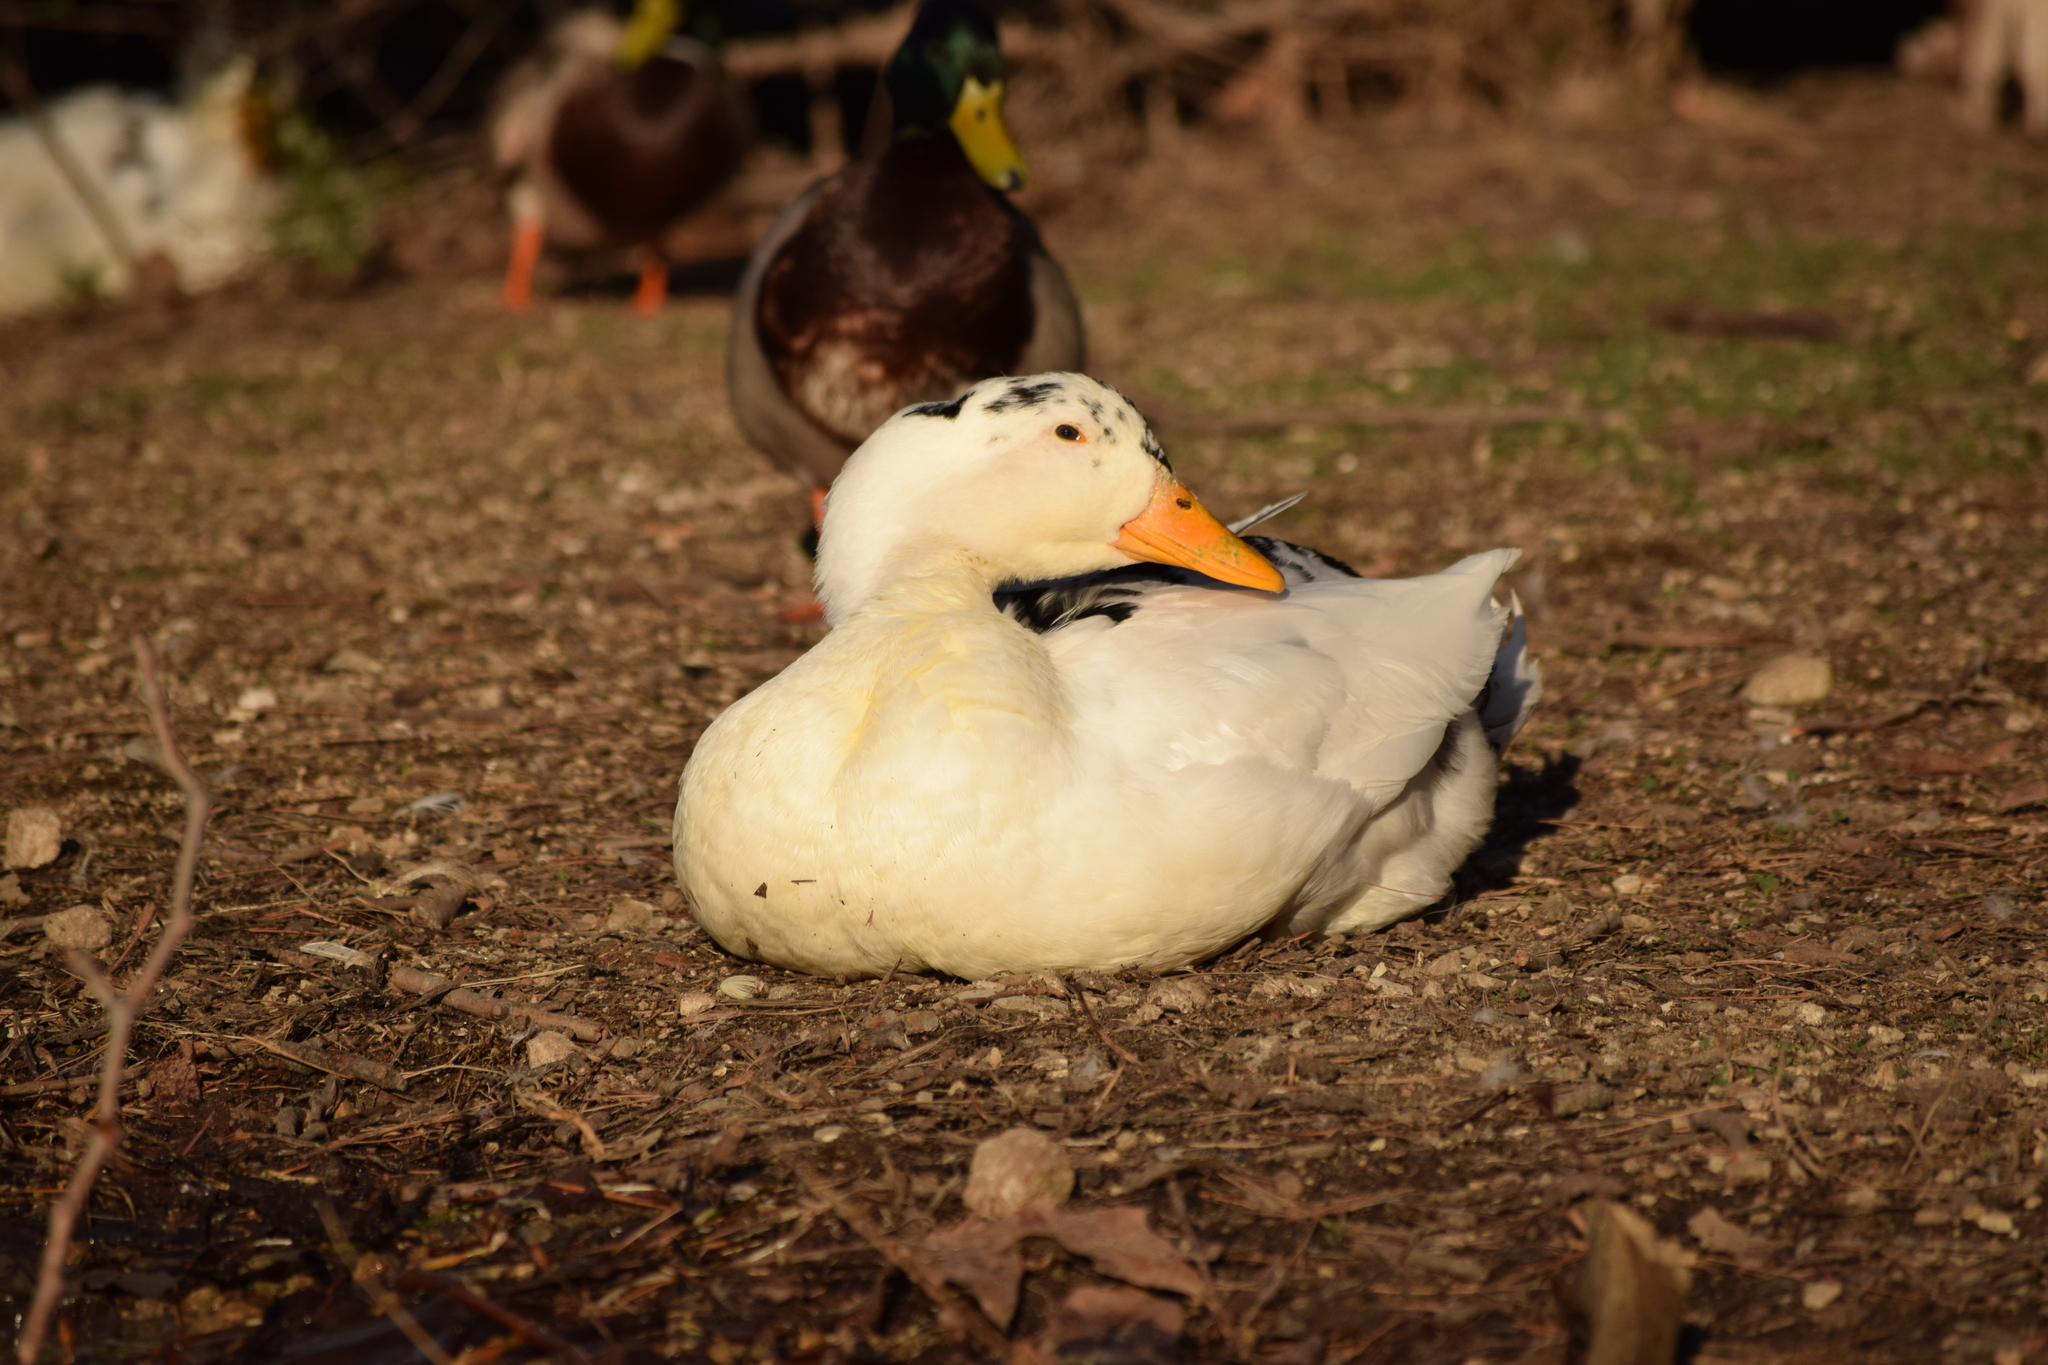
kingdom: Animalia
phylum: Chordata
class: Aves
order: Anseriformes
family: Anatidae
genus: Anas
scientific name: Anas platyrhynchos
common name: Mallard
